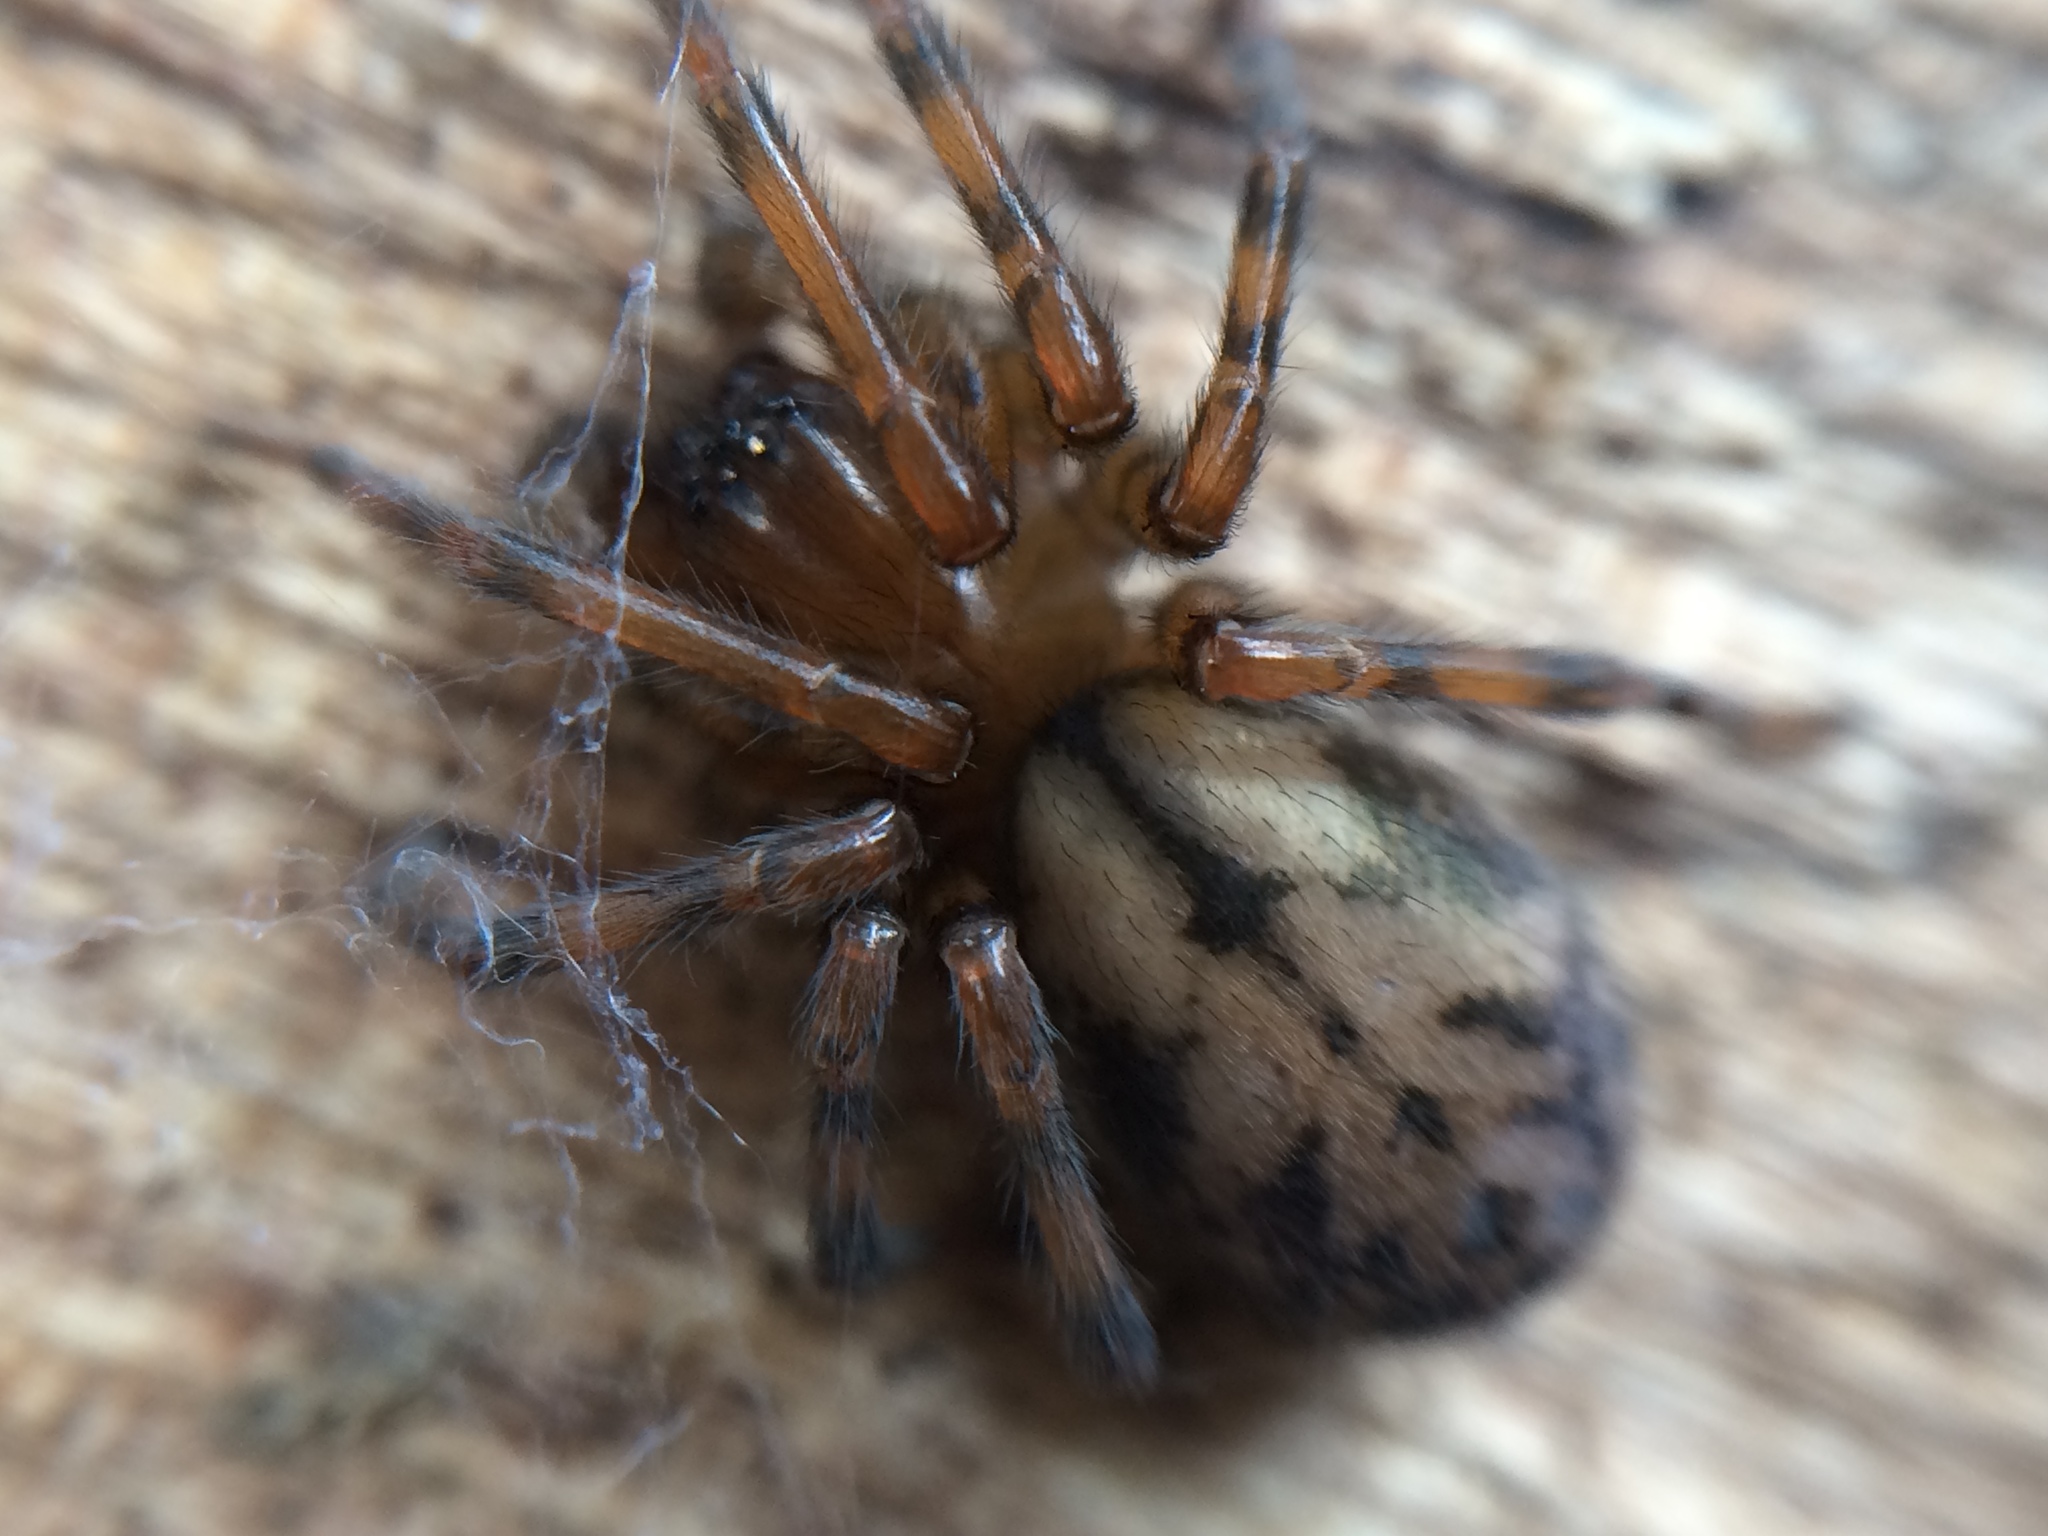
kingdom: Animalia
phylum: Arthropoda
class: Arachnida
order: Araneae
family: Amaurobiidae
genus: Callobius
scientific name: Callobius pictus
